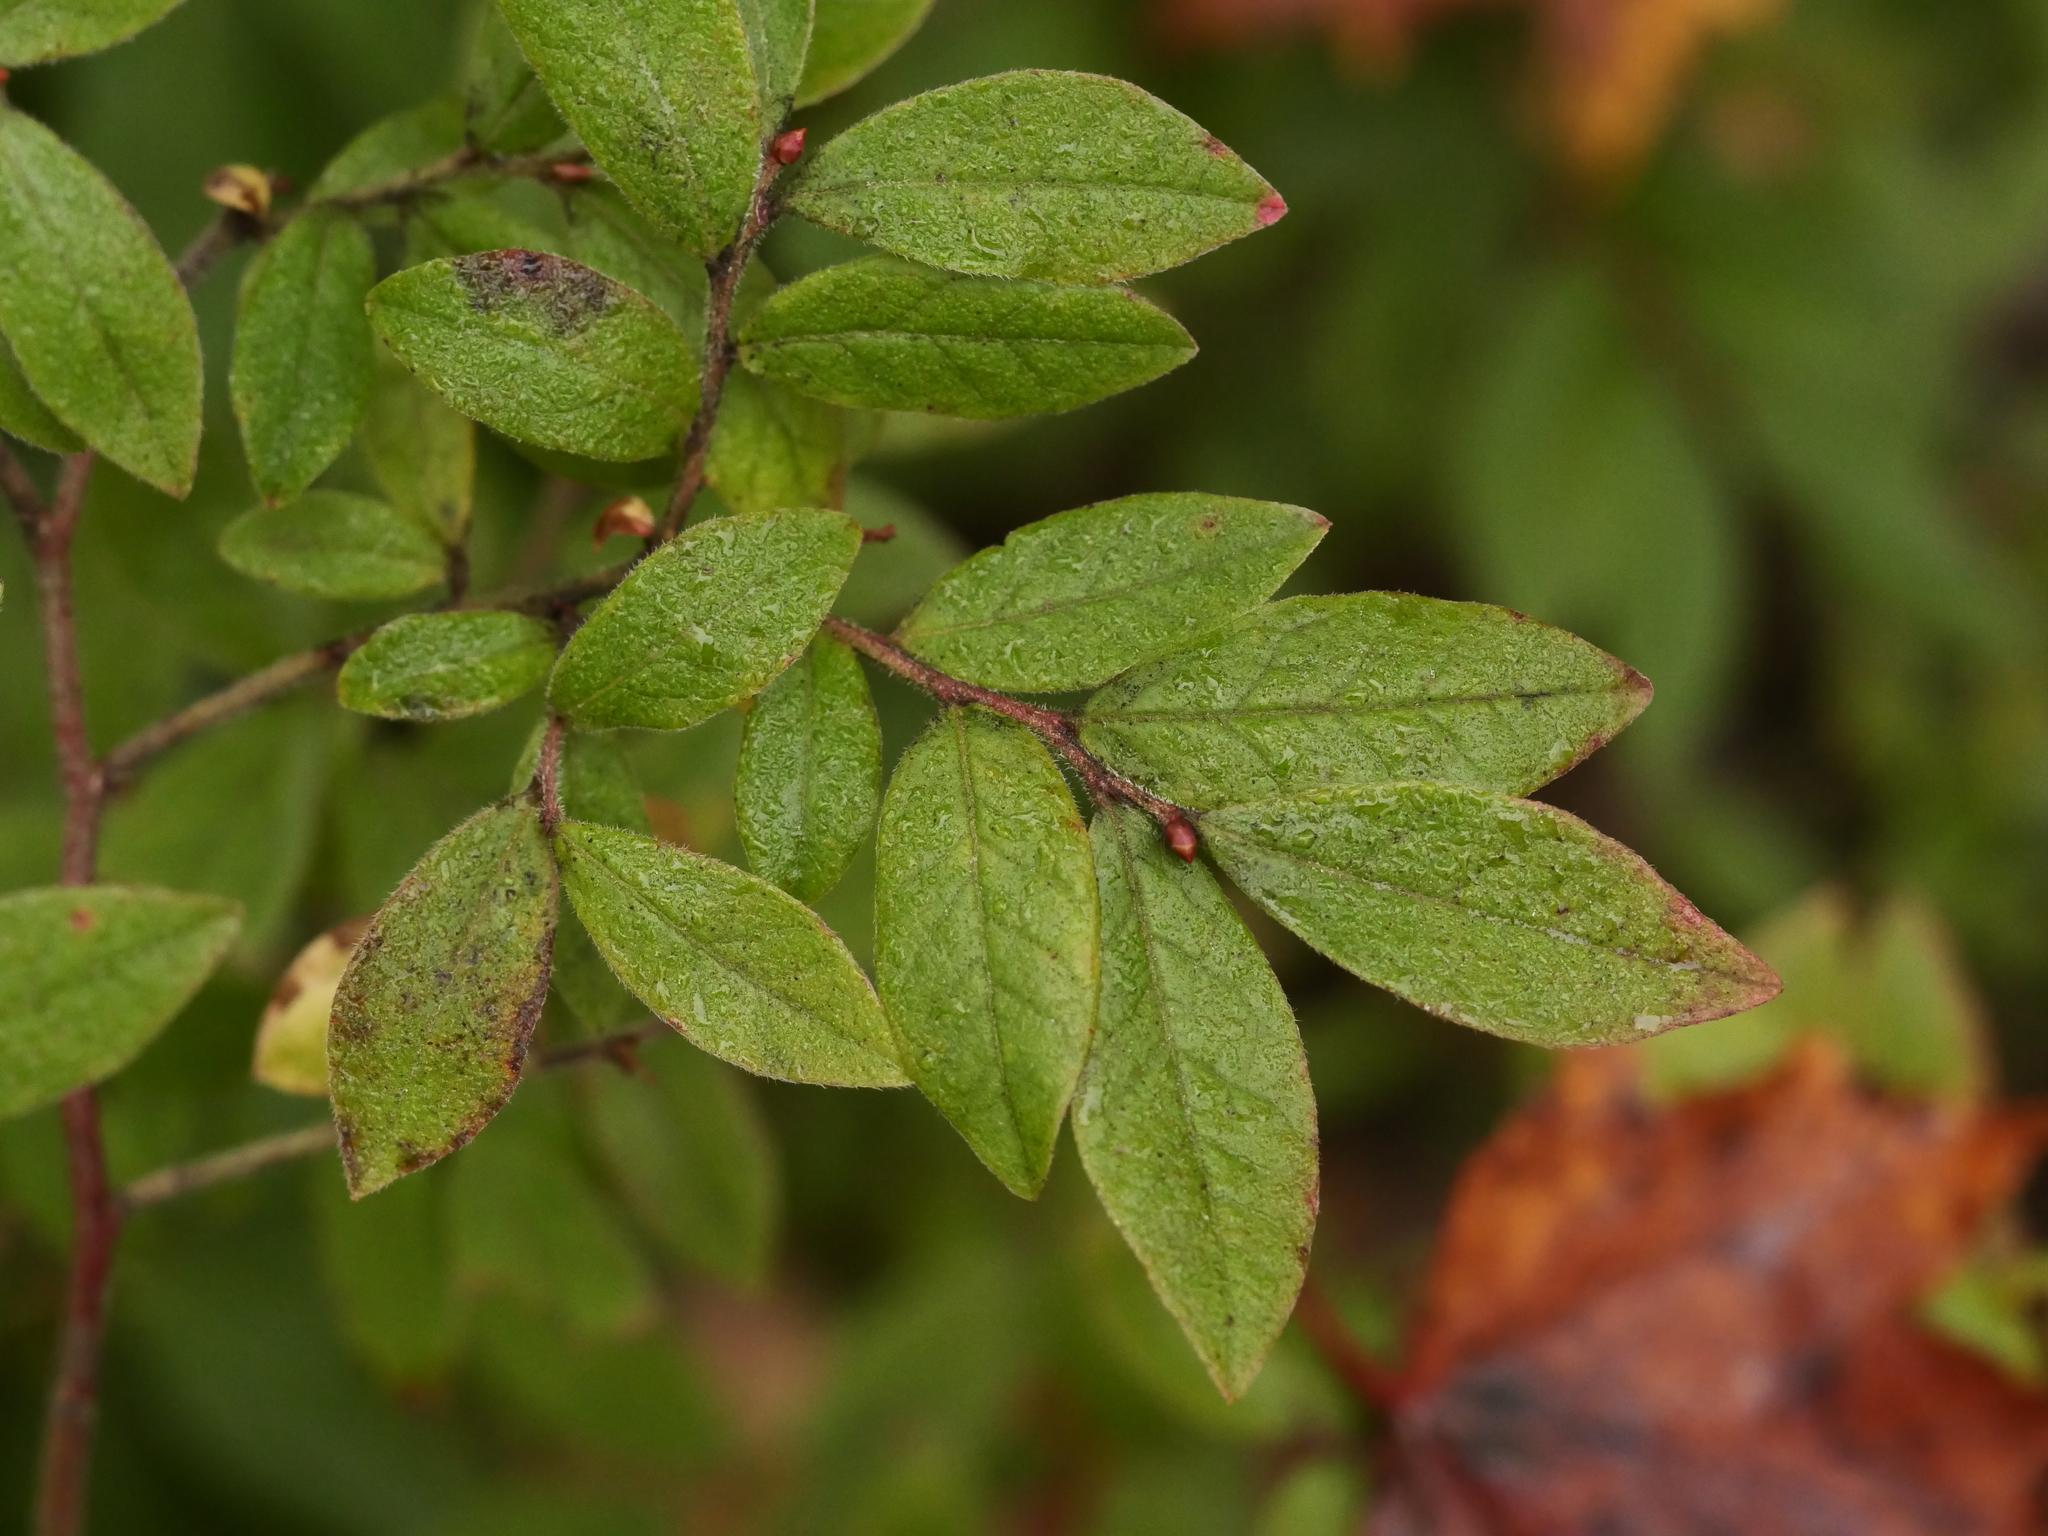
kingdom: Plantae
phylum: Tracheophyta
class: Magnoliopsida
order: Ericales
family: Ericaceae
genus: Vaccinium
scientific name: Vaccinium myrtilloides
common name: Canada blueberry
